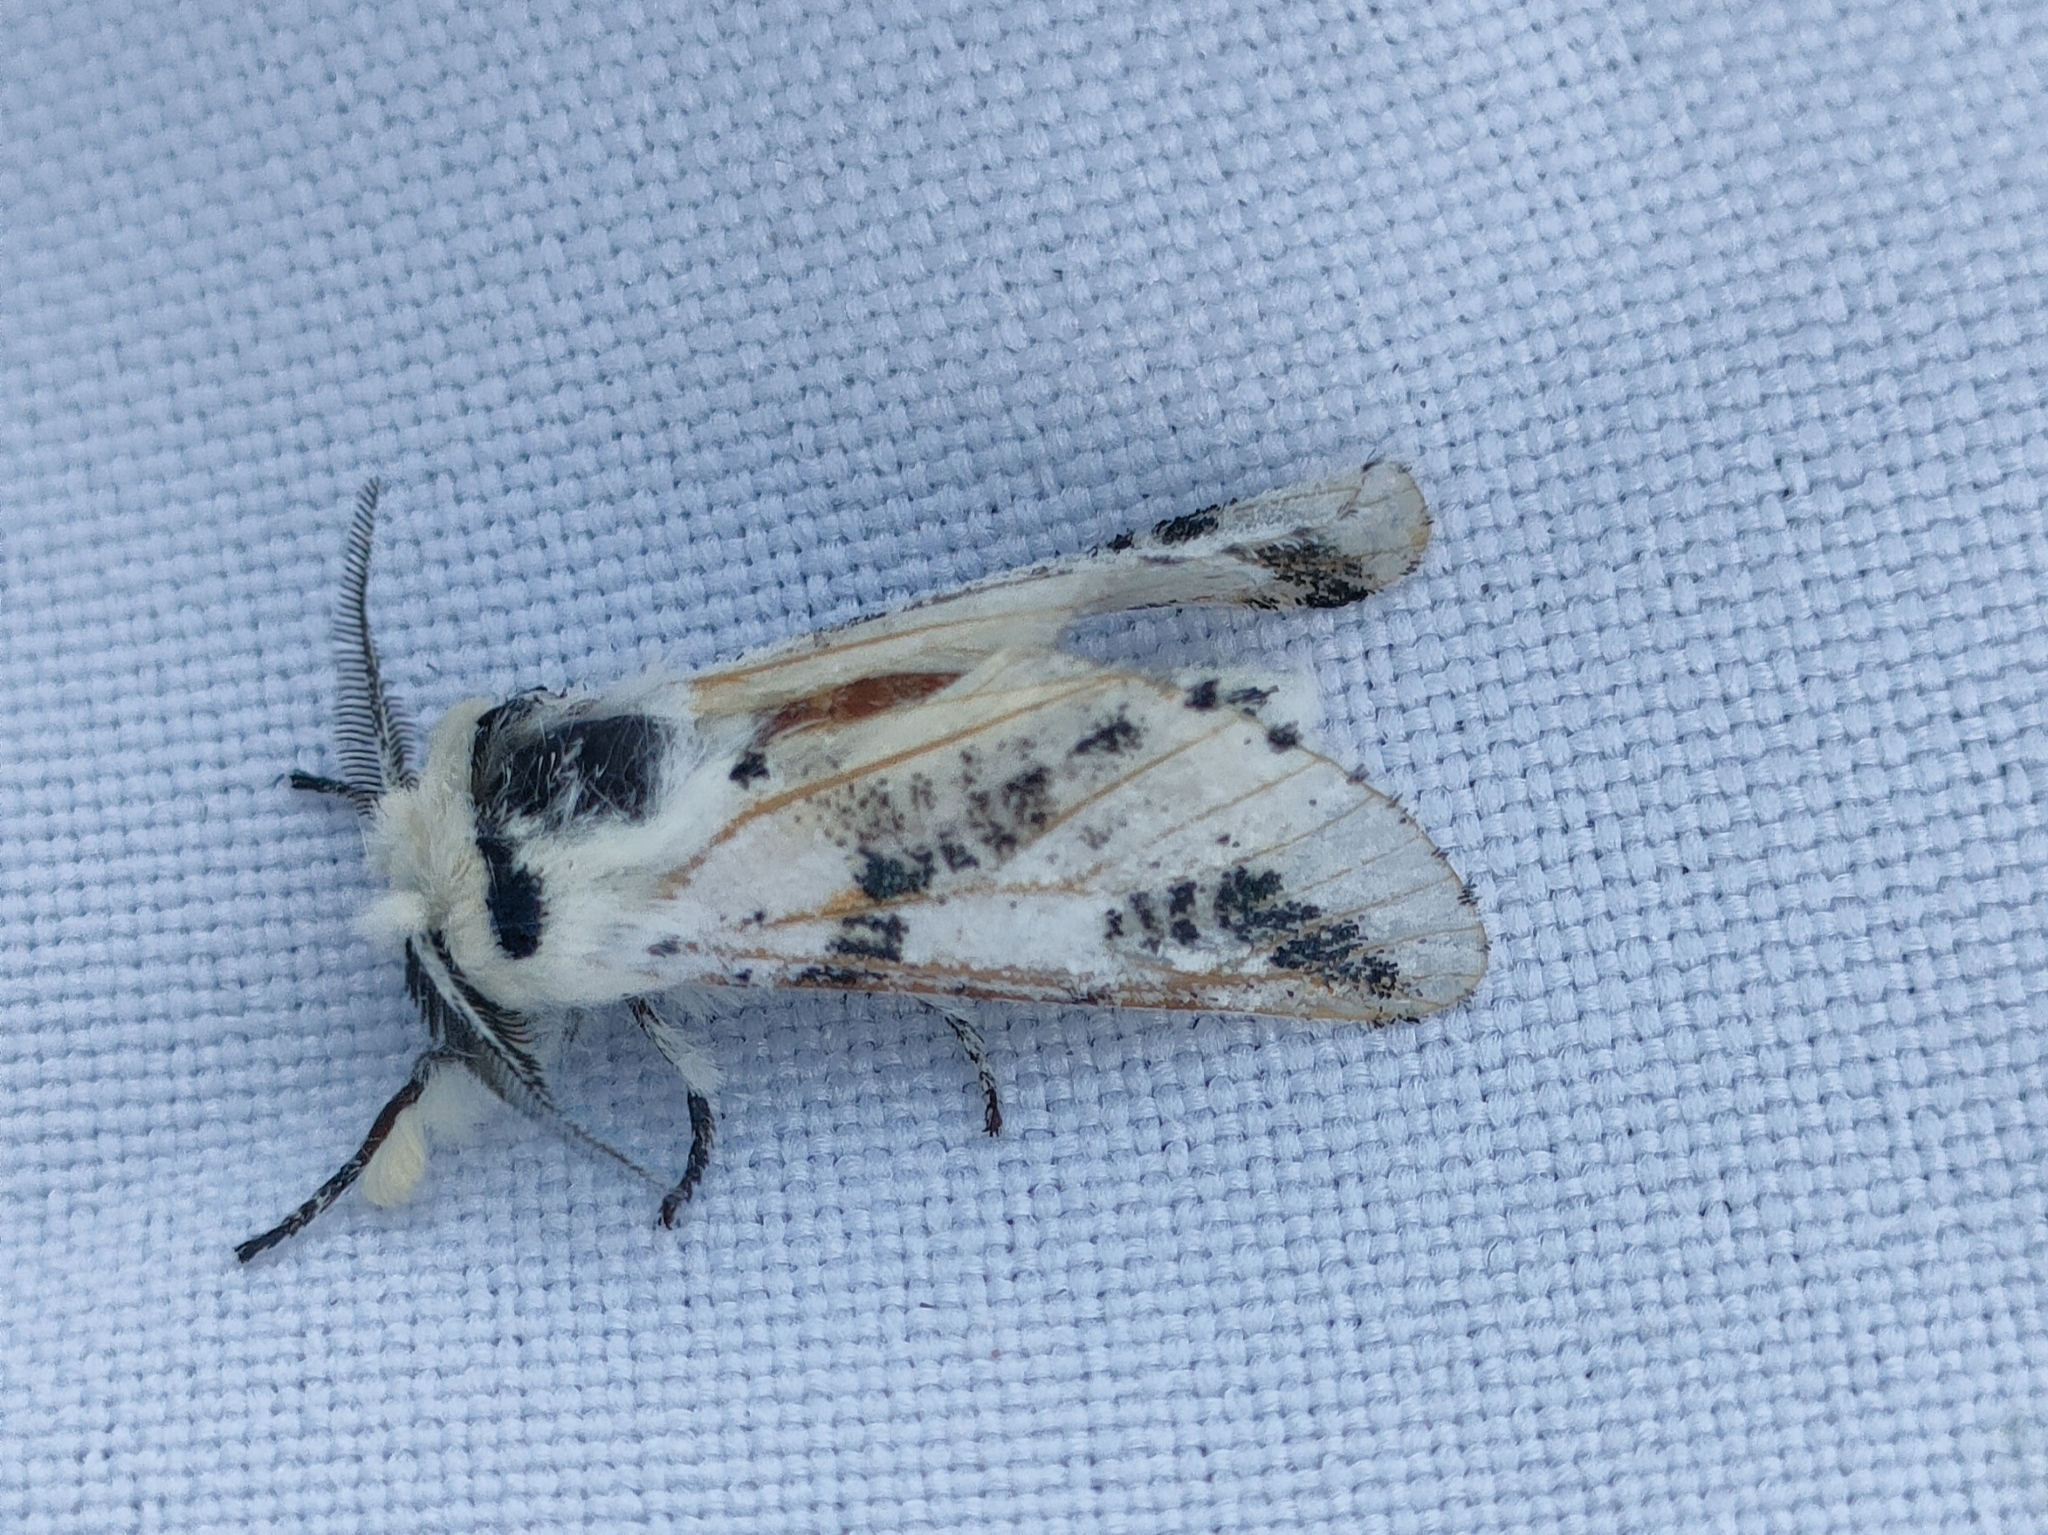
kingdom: Animalia
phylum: Arthropoda
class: Insecta
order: Lepidoptera
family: Notodontidae
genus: Neoharpyia
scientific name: Neoharpyia verbasci
